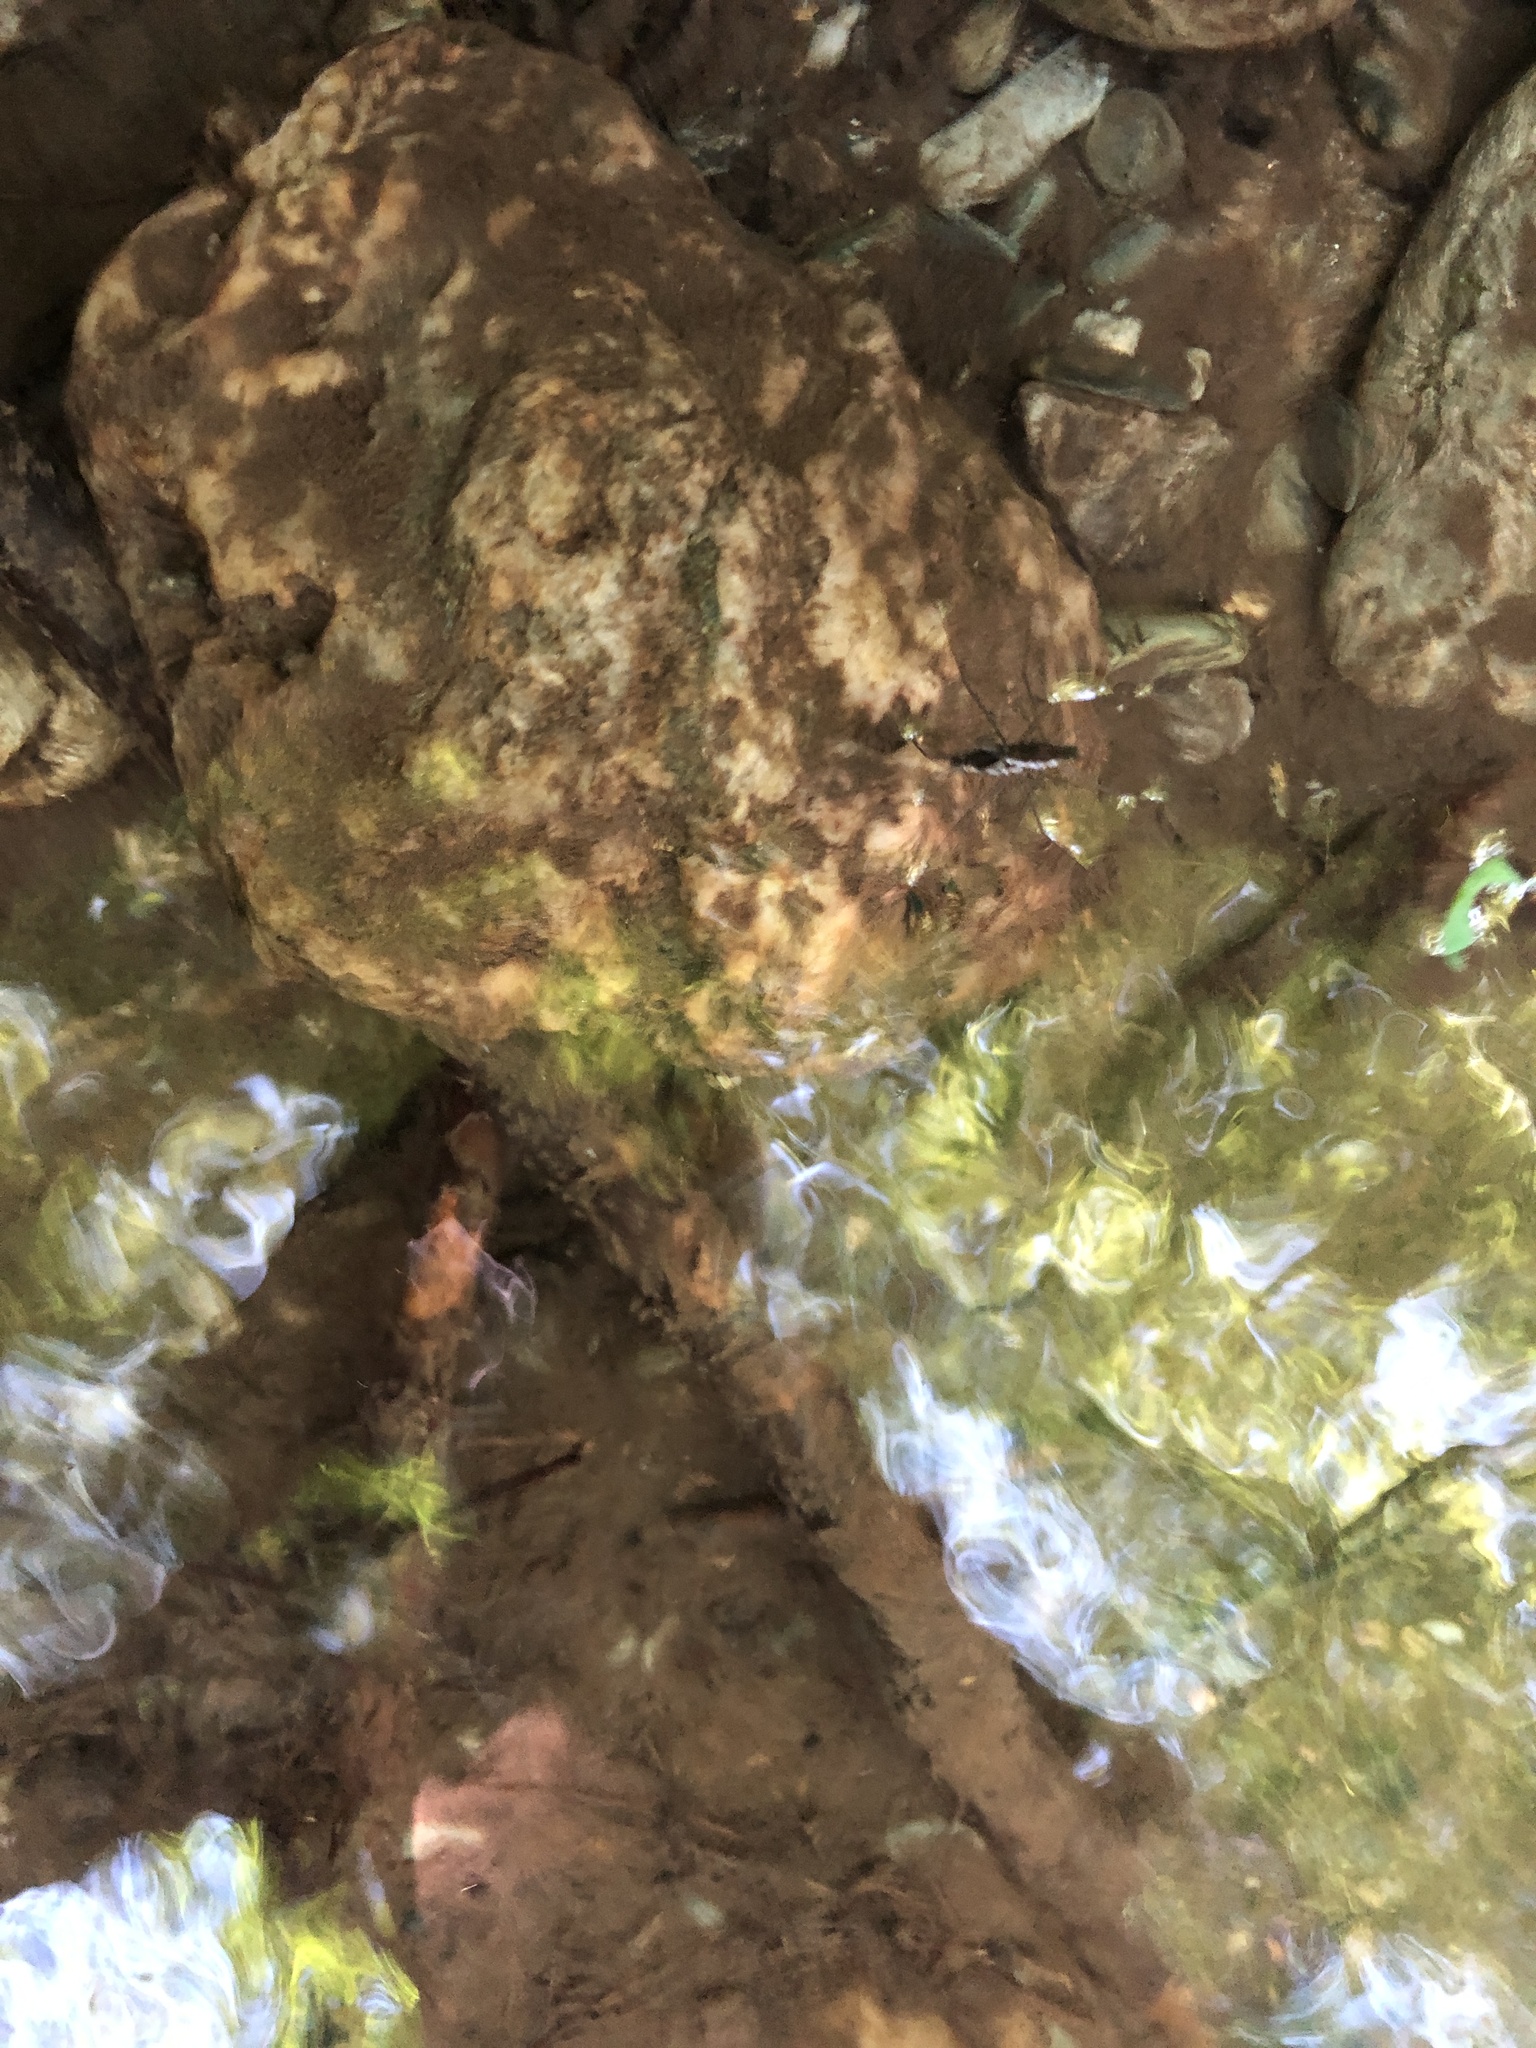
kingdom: Animalia
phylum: Arthropoda
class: Insecta
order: Hemiptera
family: Gerridae
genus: Aquarius
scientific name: Aquarius remigis
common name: Common water strider
